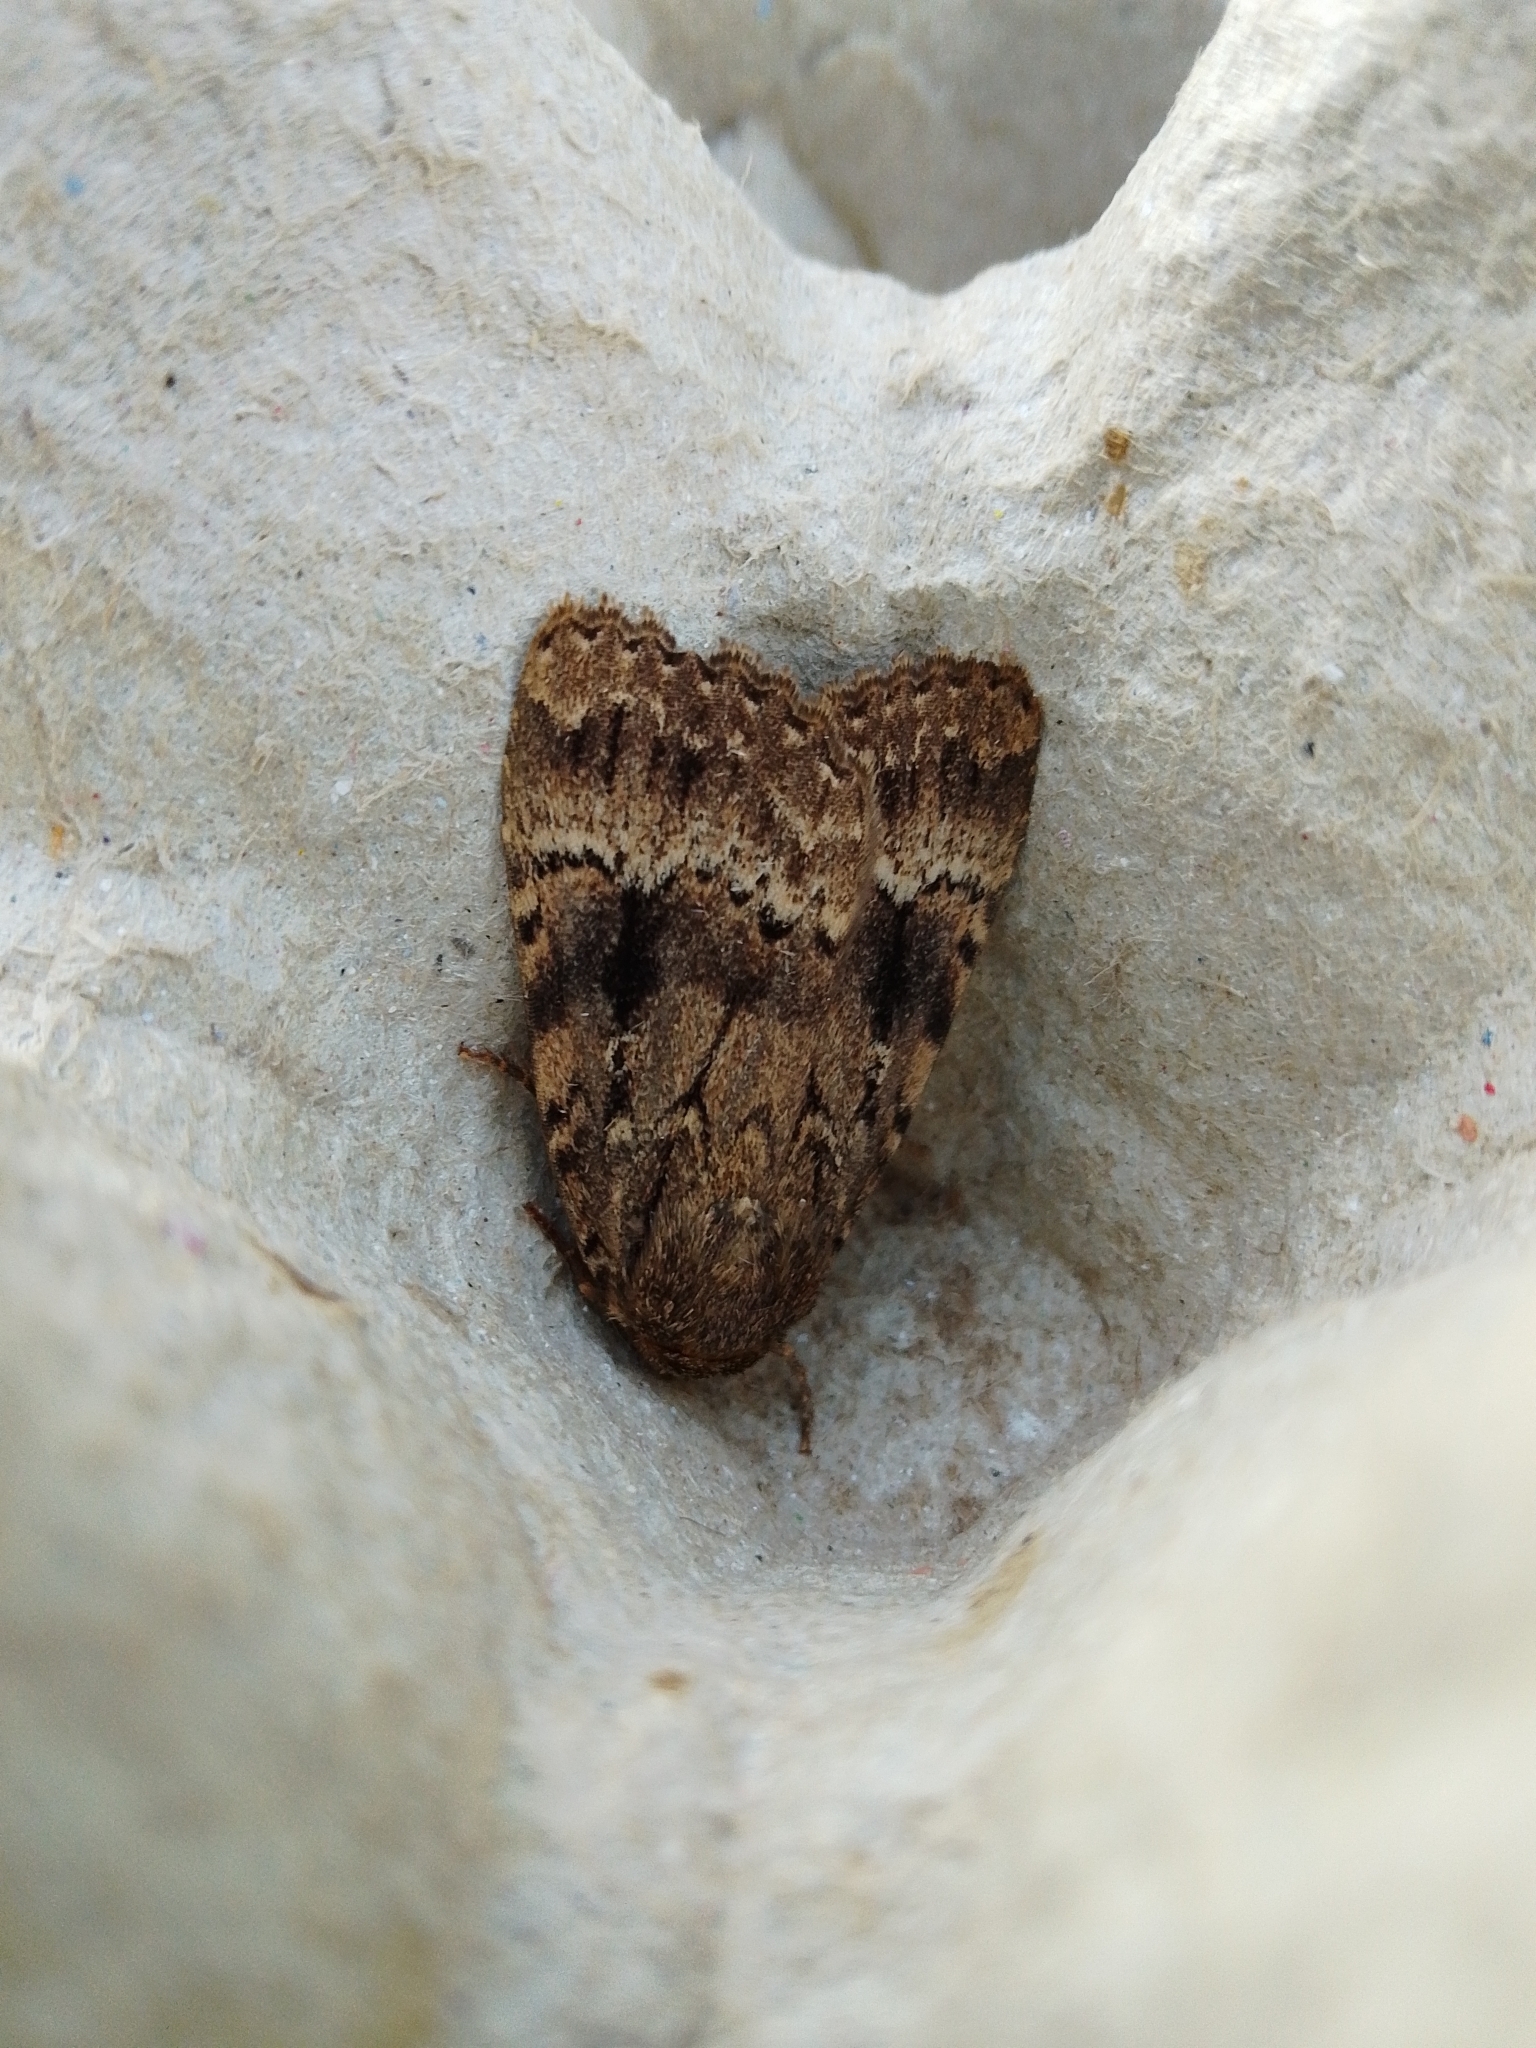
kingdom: Animalia
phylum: Arthropoda
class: Insecta
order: Lepidoptera
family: Noctuidae
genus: Amphipyra
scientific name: Amphipyra
